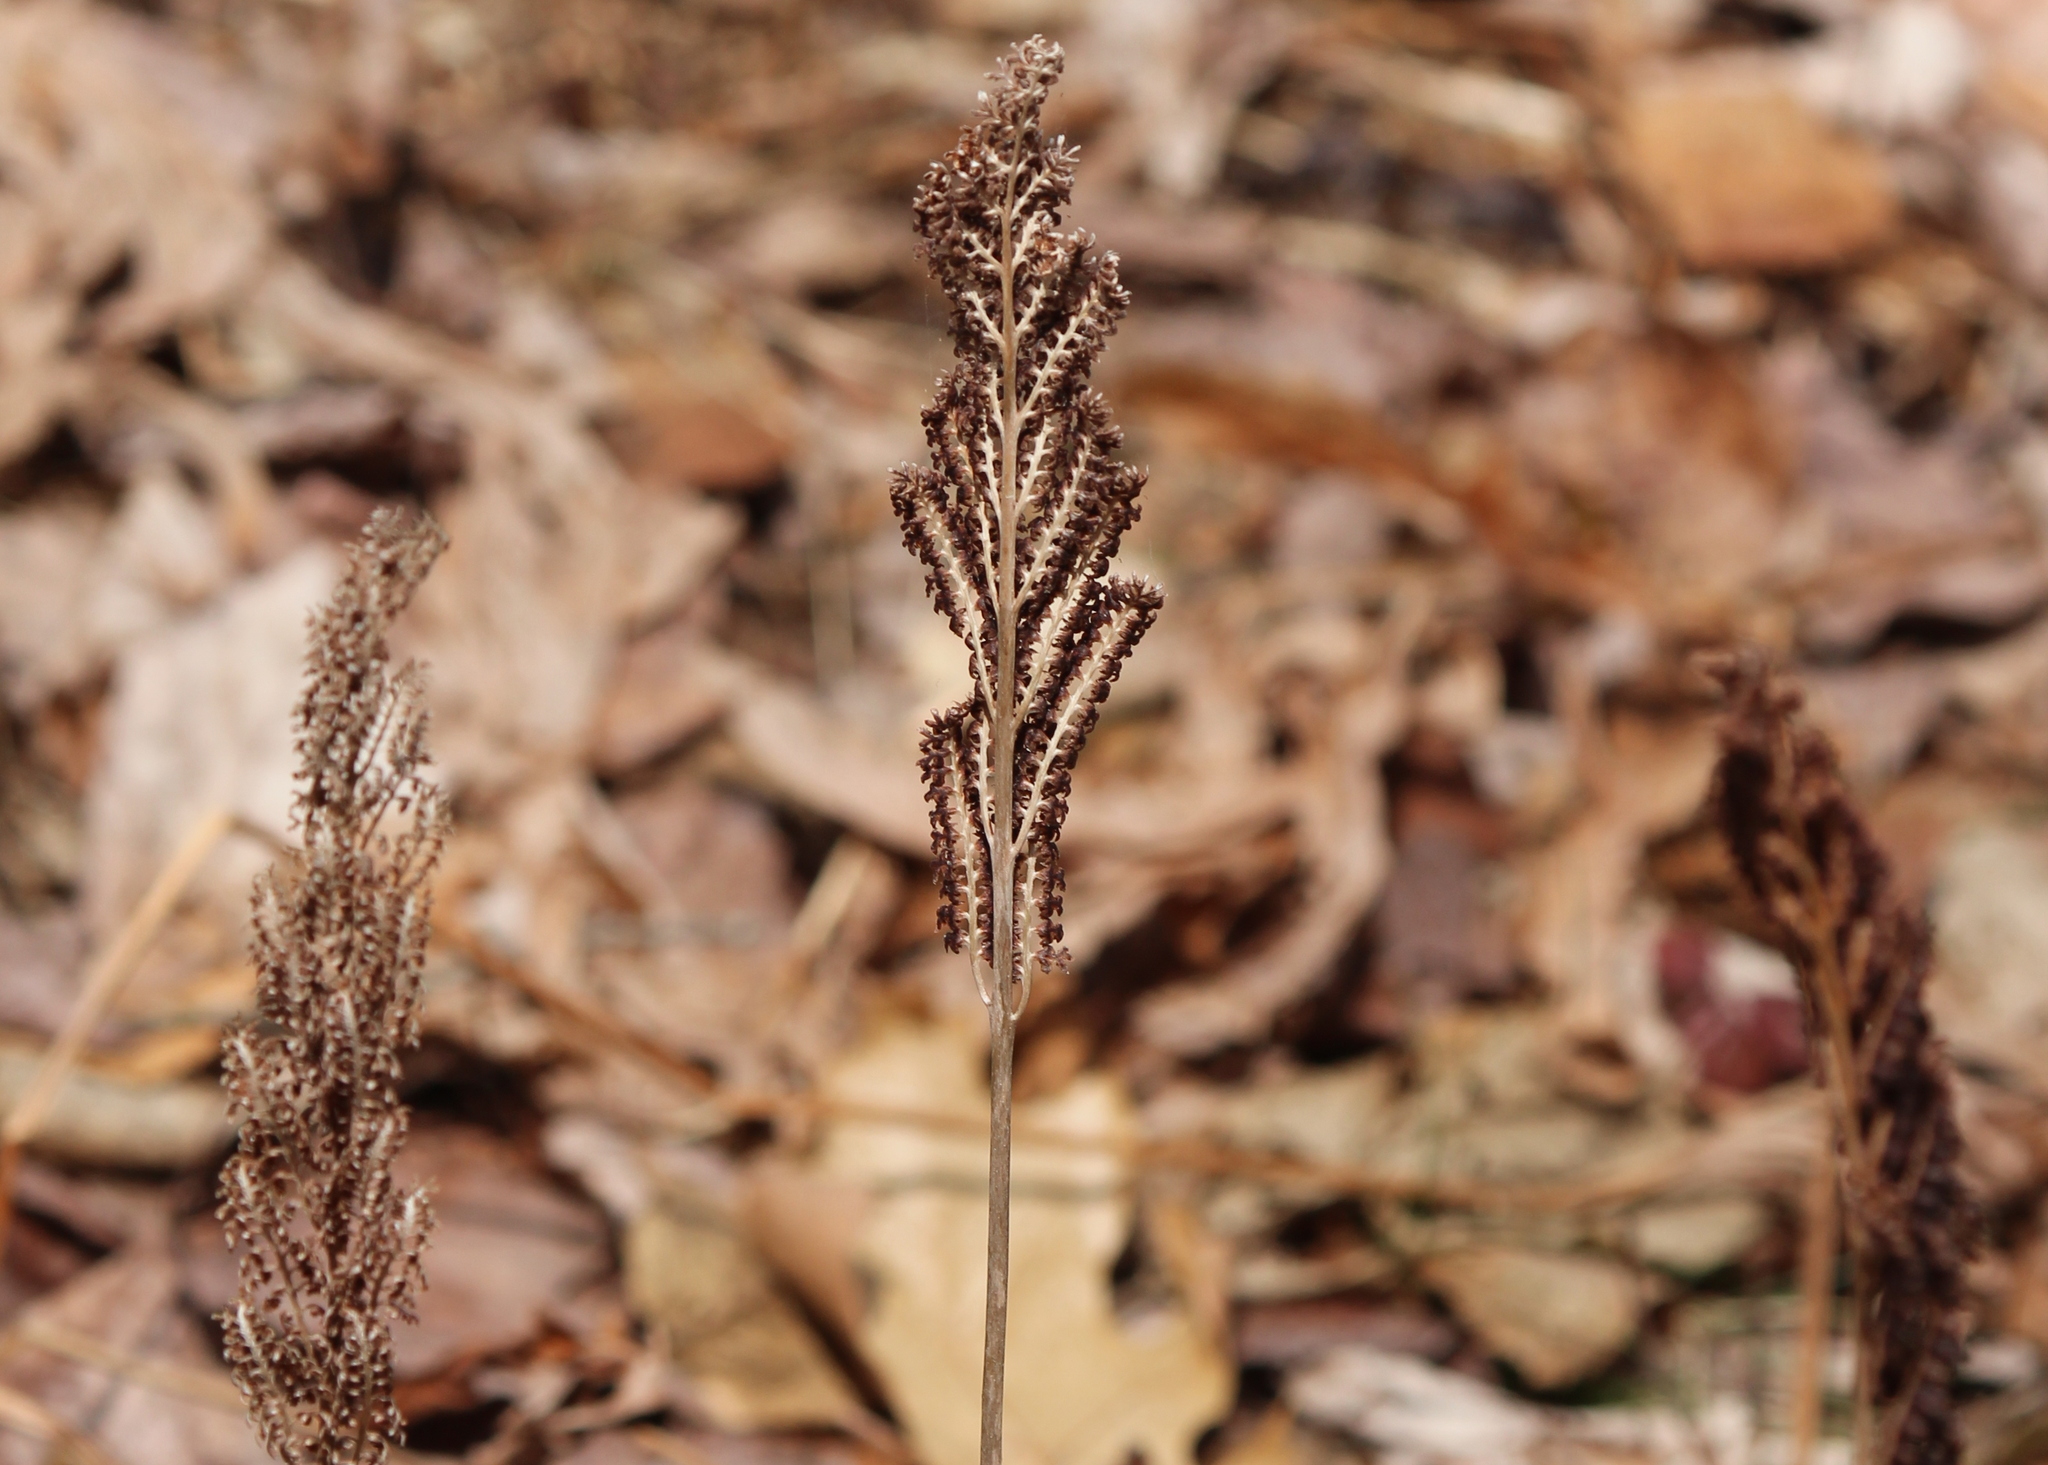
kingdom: Plantae
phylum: Tracheophyta
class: Polypodiopsida
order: Polypodiales
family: Onocleaceae
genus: Onoclea
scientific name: Onoclea sensibilis
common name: Sensitive fern
